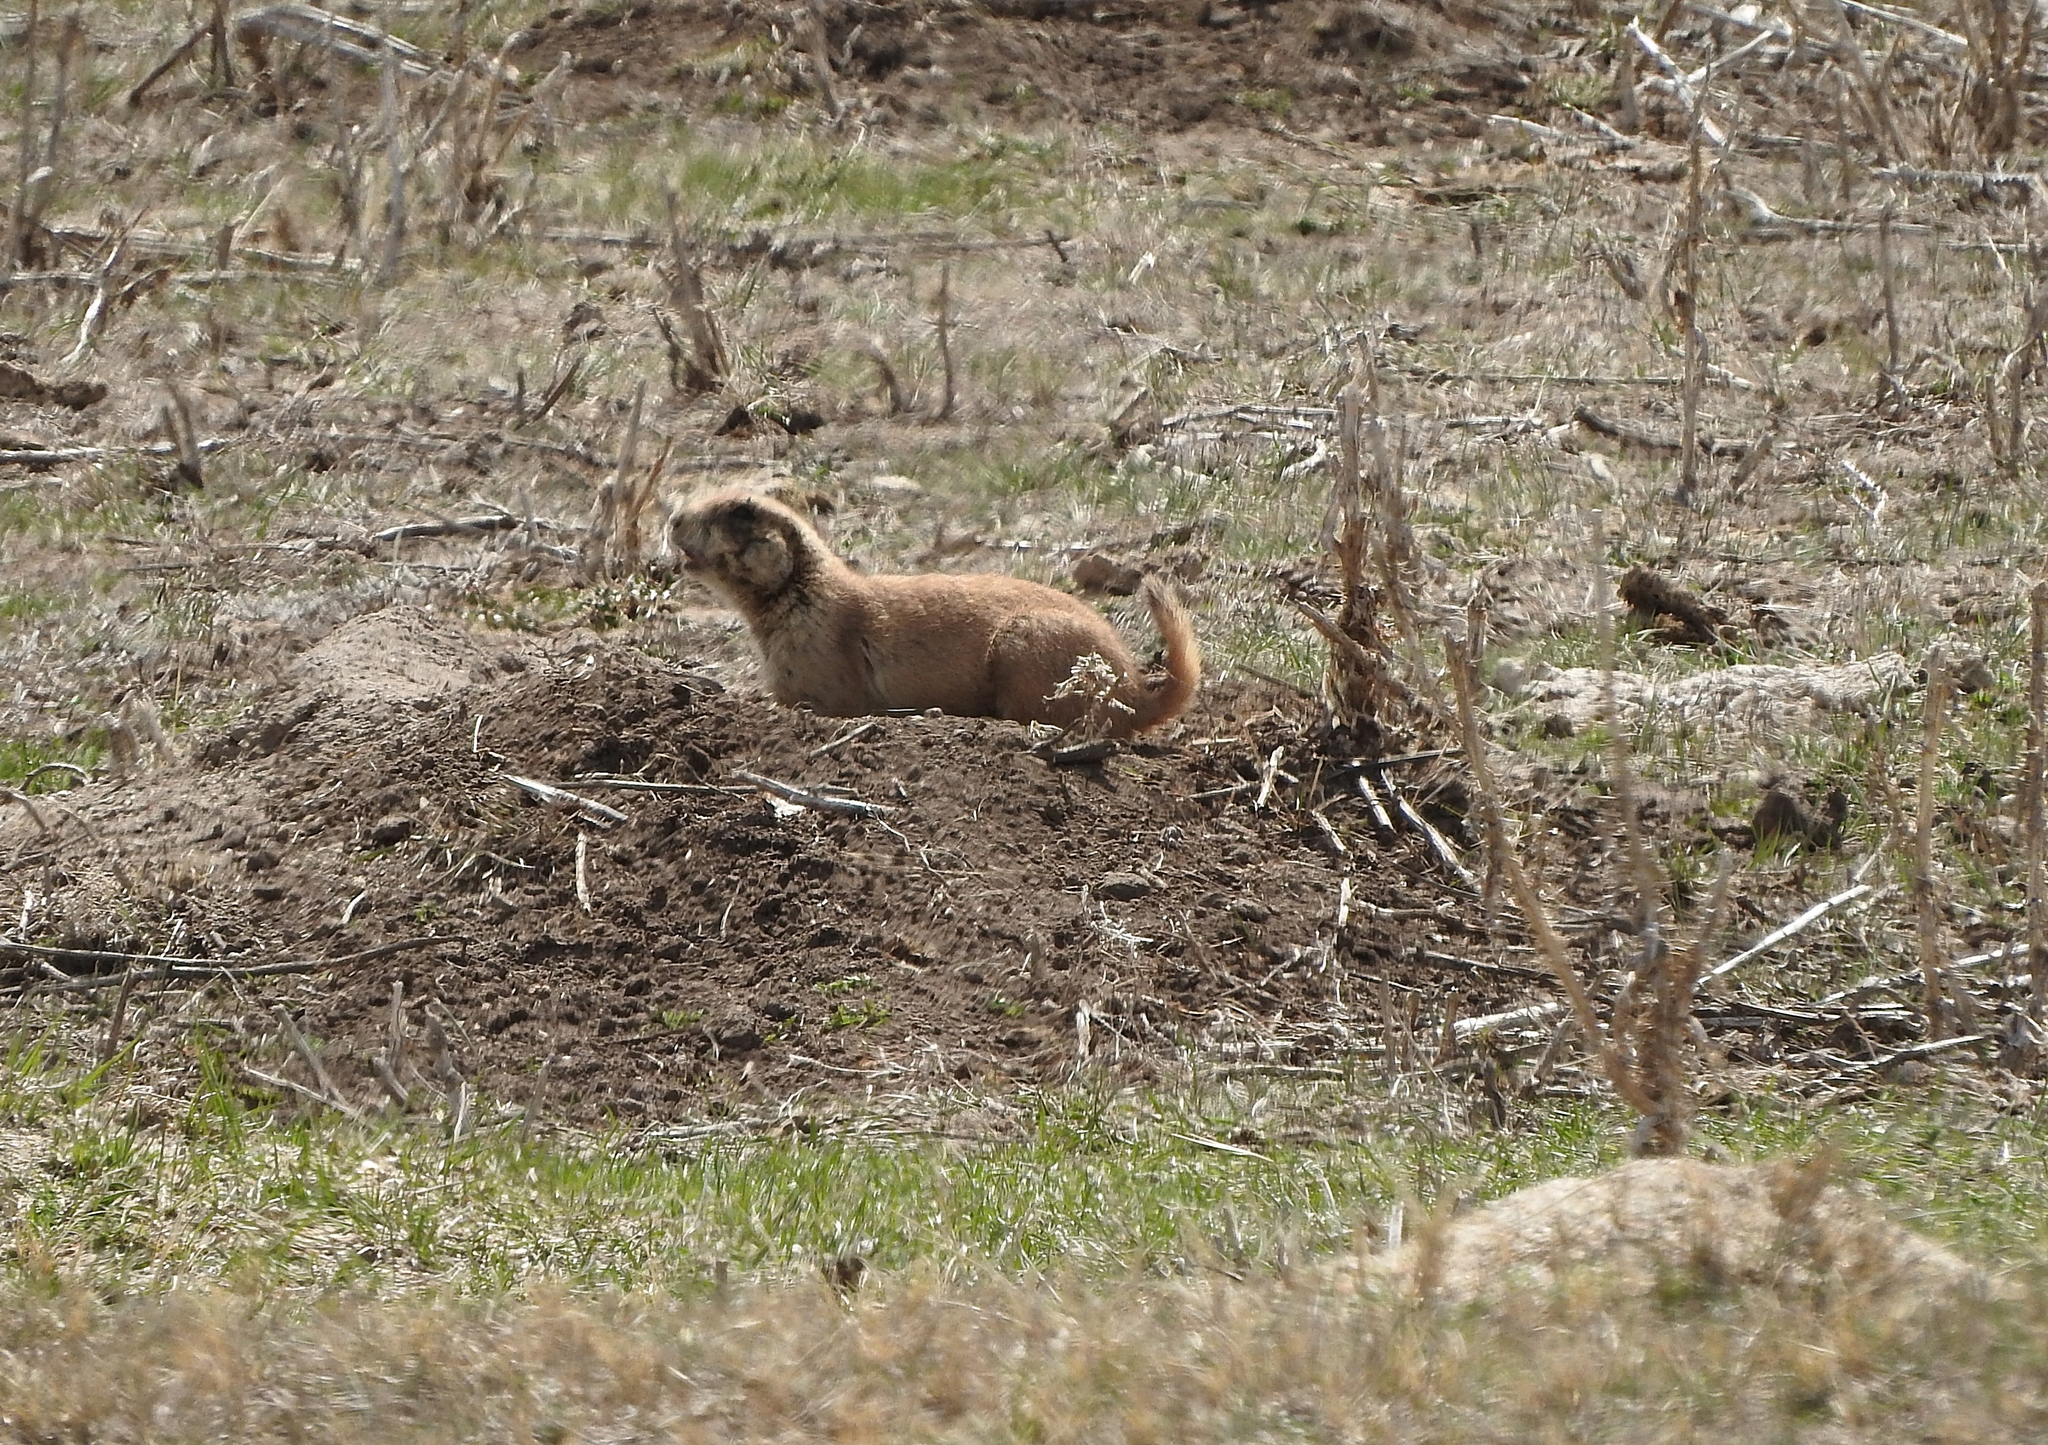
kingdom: Animalia
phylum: Chordata
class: Mammalia
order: Rodentia
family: Sciuridae
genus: Cynomys
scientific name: Cynomys ludovicianus
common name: Black-tailed prairie dog
